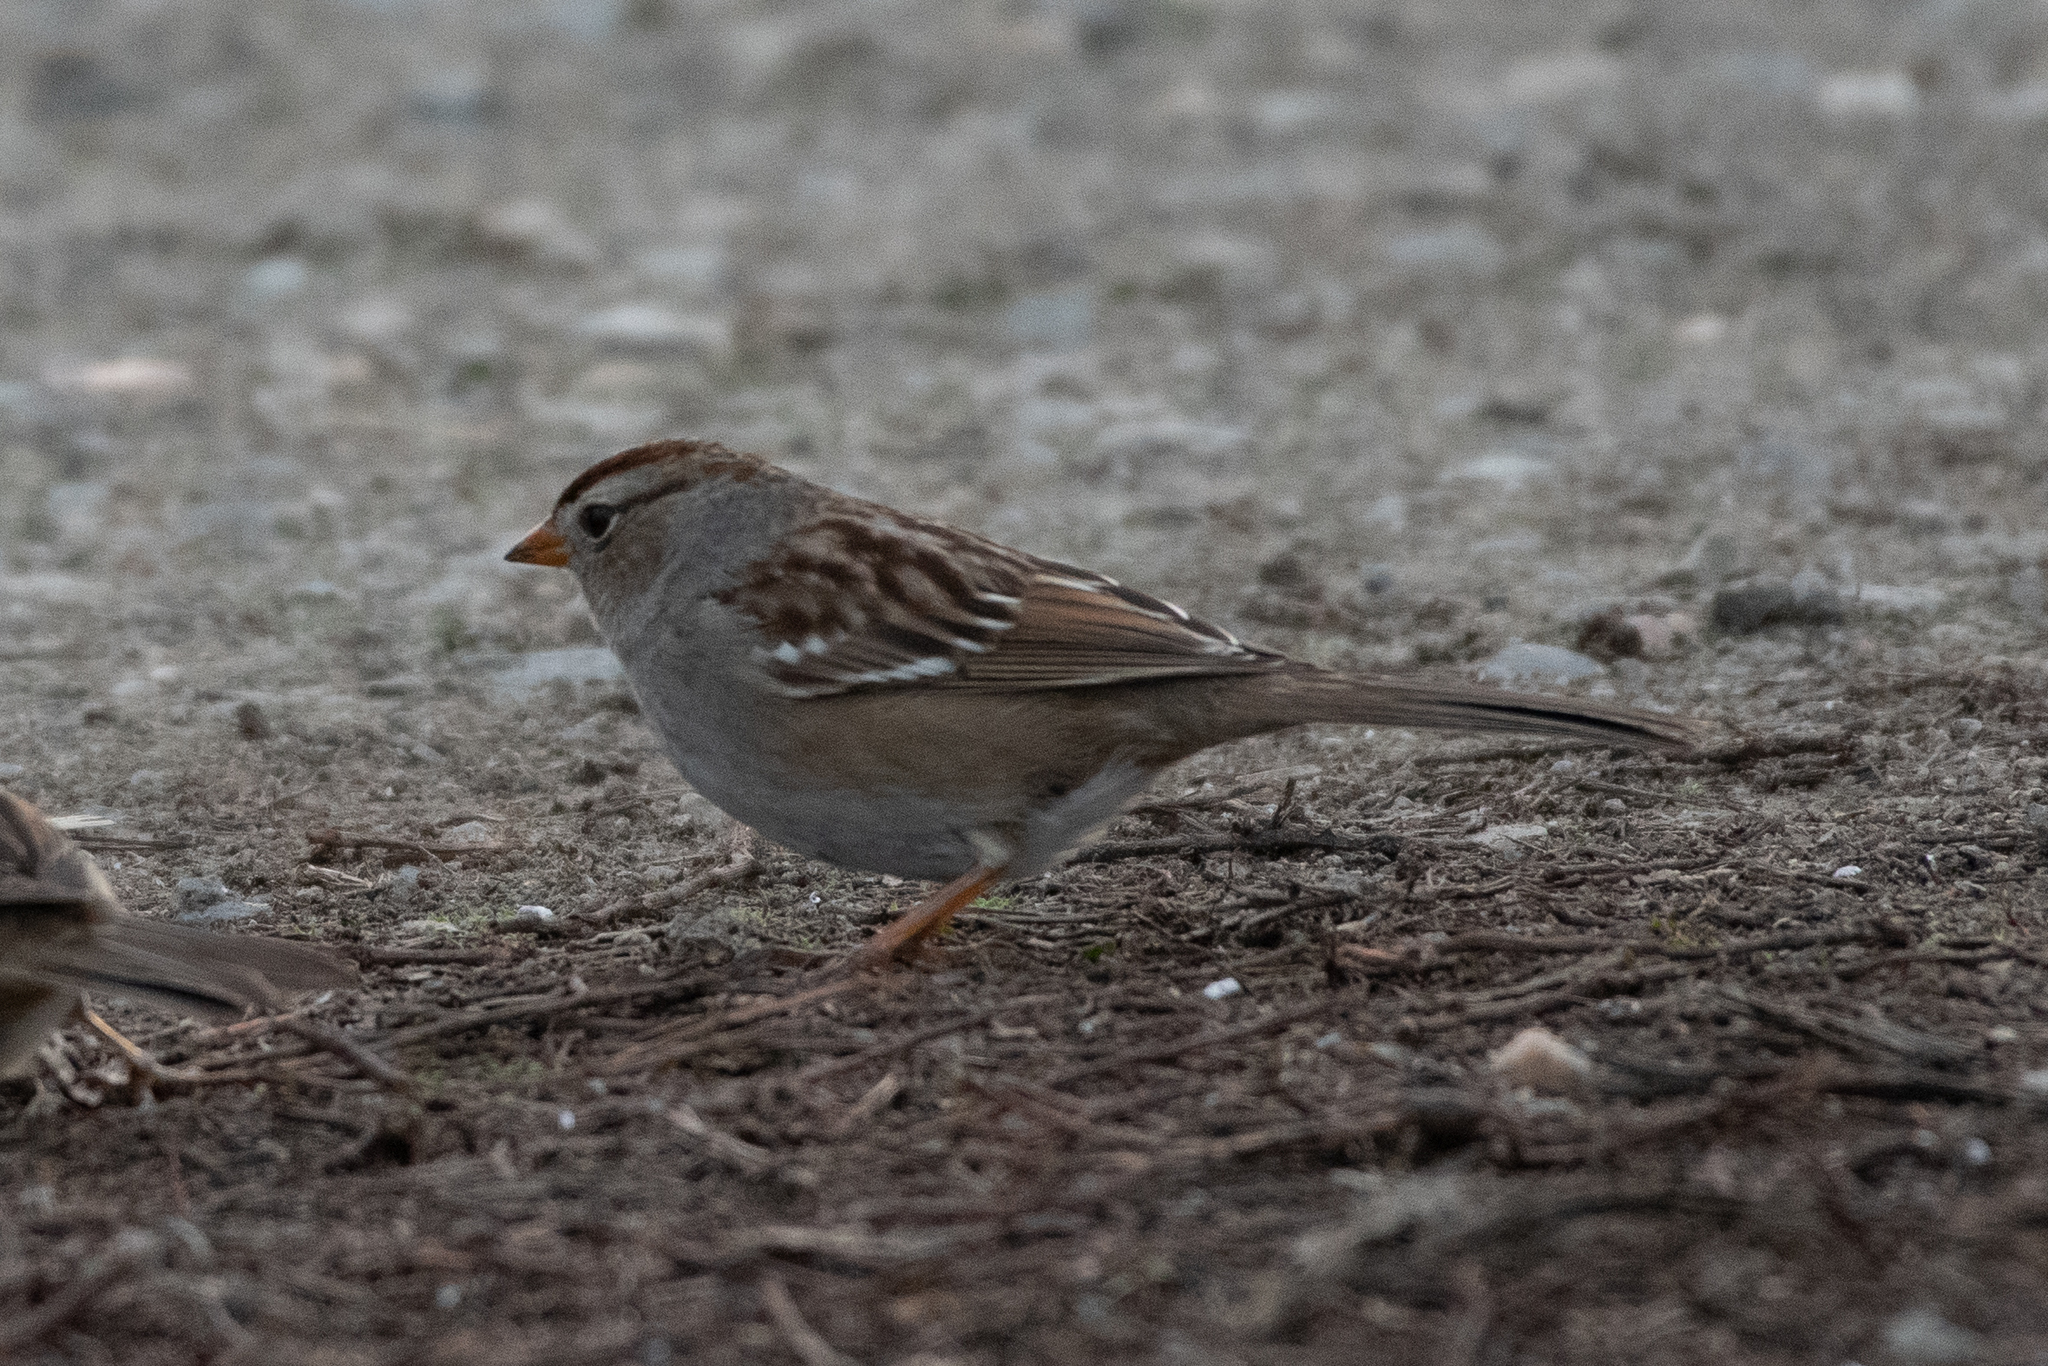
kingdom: Animalia
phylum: Chordata
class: Aves
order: Passeriformes
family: Passerellidae
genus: Zonotrichia
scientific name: Zonotrichia leucophrys
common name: White-crowned sparrow
